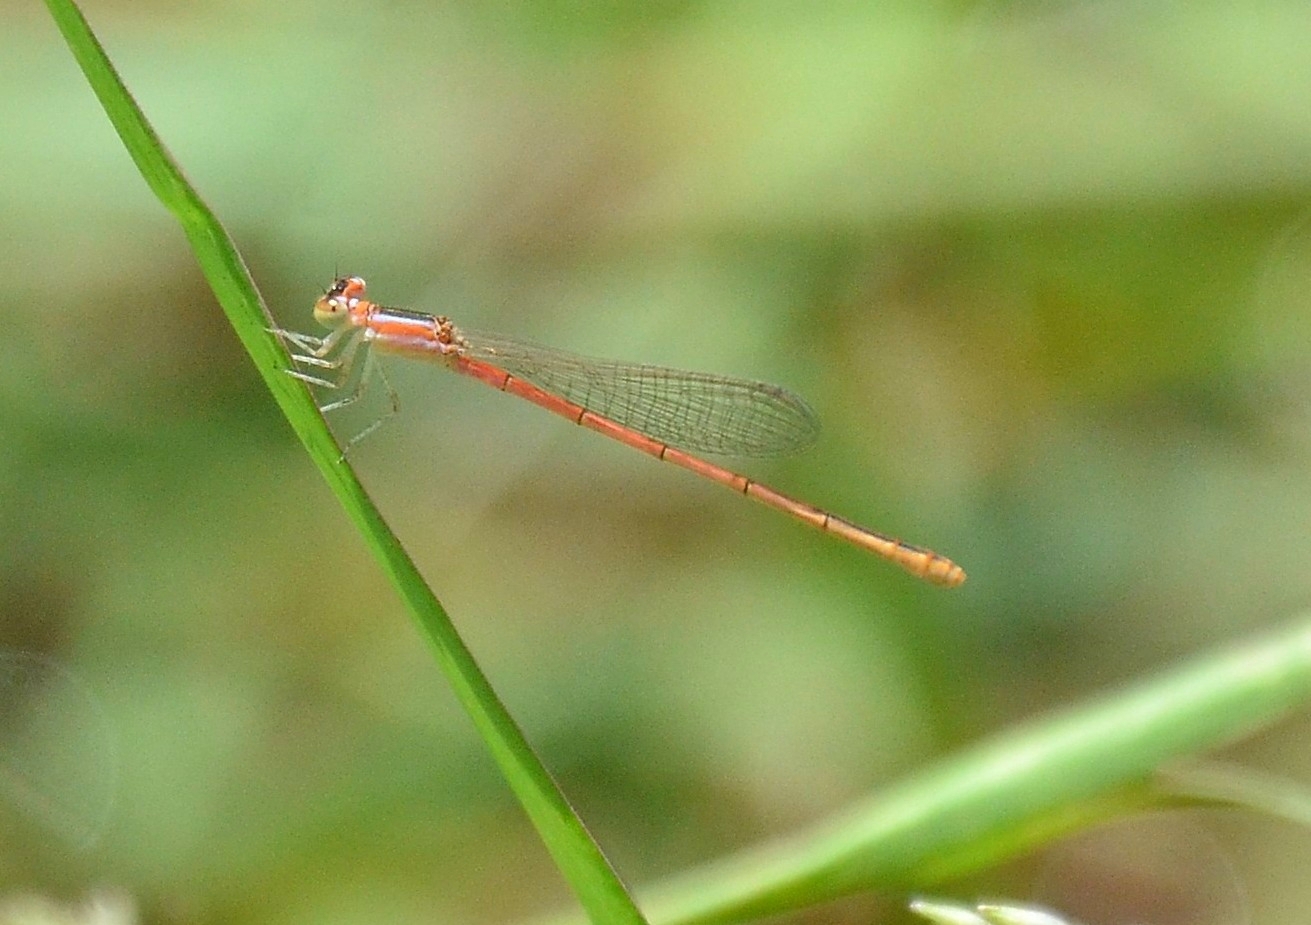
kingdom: Animalia
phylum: Arthropoda
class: Insecta
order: Odonata
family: Coenagrionidae
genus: Agriocnemis
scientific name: Agriocnemis pygmaea
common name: Pygmy wisp
